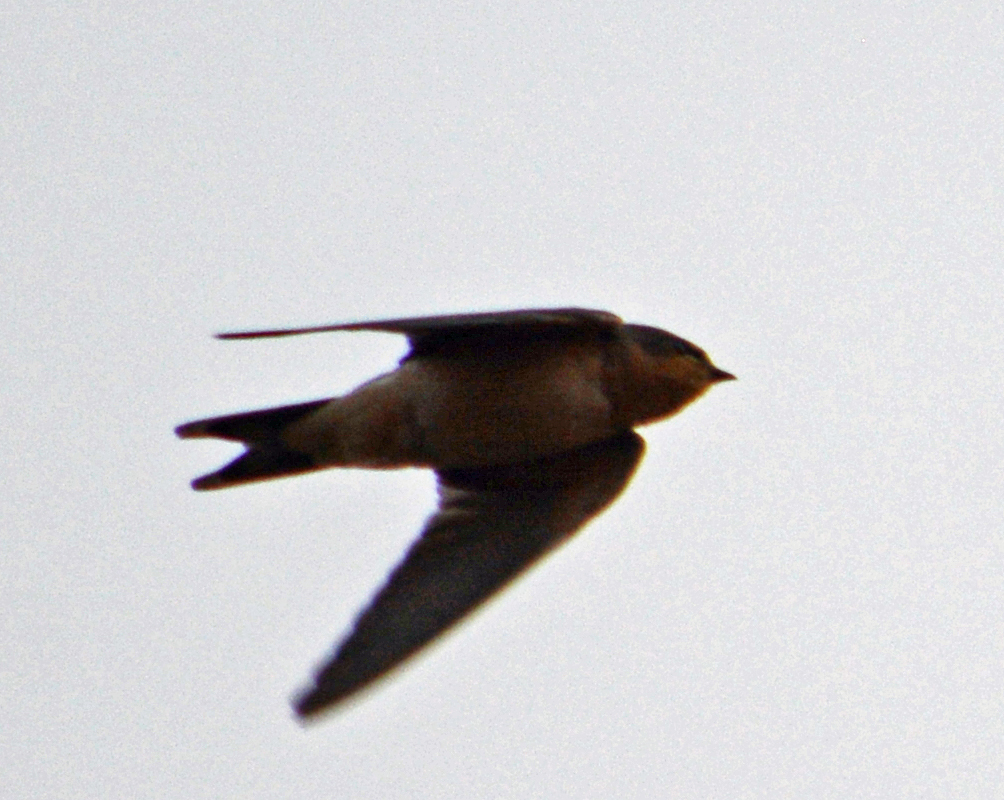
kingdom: Animalia
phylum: Chordata
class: Aves
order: Passeriformes
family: Hirundinidae
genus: Hirundo
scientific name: Hirundo rustica
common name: Barn swallow
